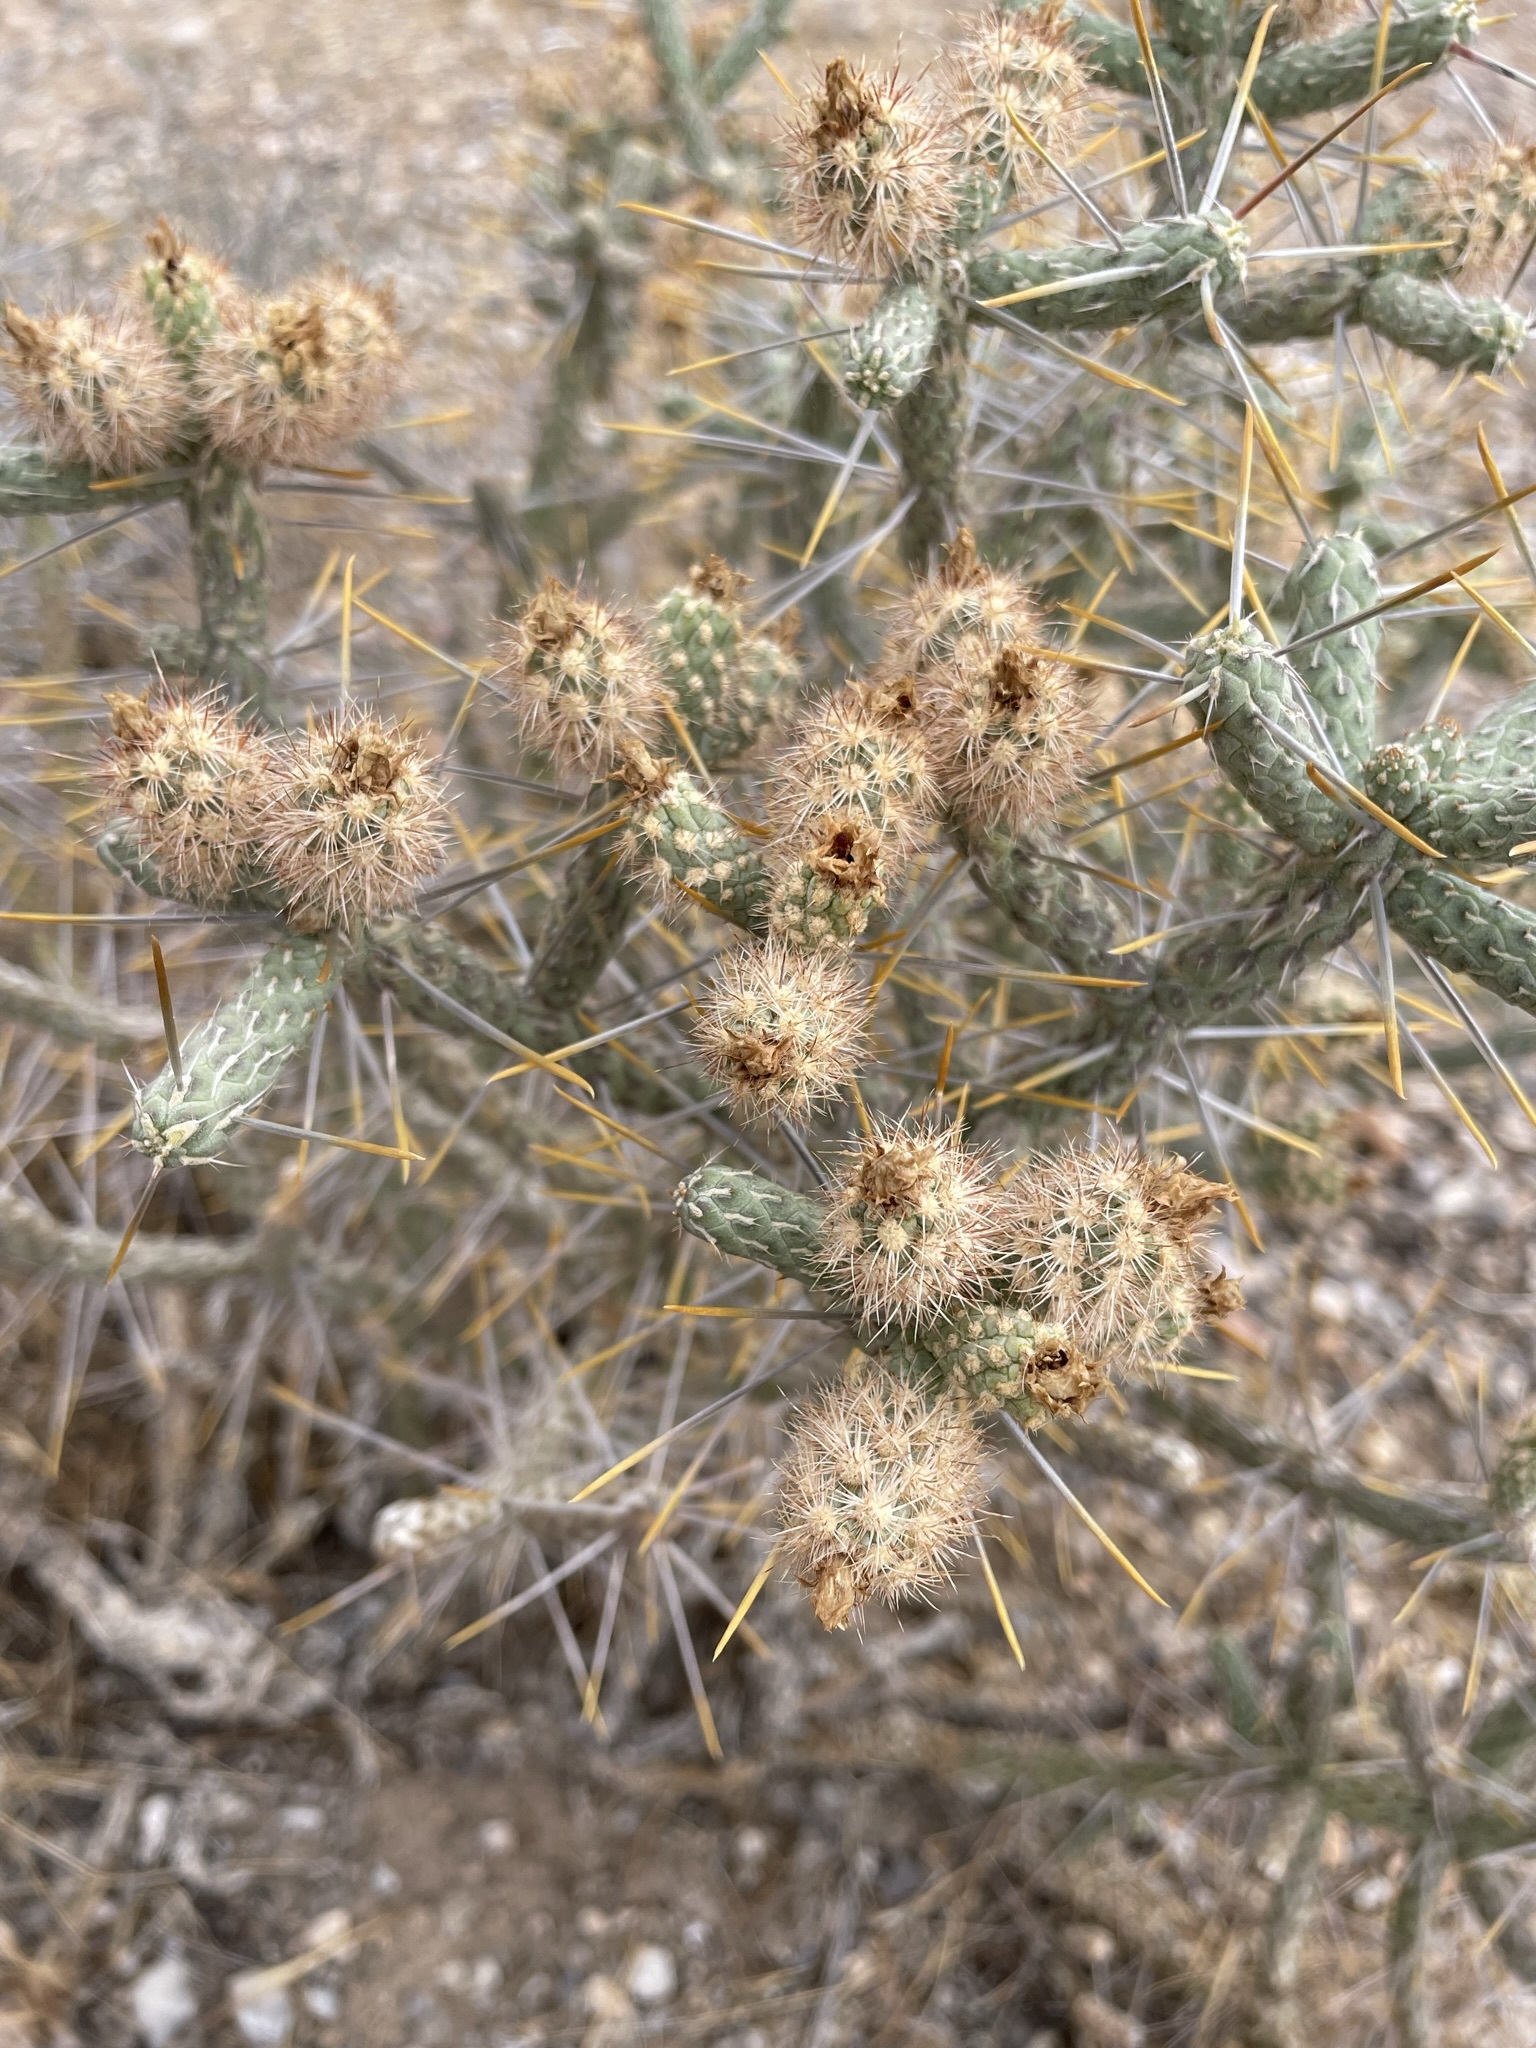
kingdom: Plantae
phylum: Tracheophyta
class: Magnoliopsida
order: Caryophyllales
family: Cactaceae
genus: Cylindropuntia
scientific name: Cylindropuntia ramosissima
